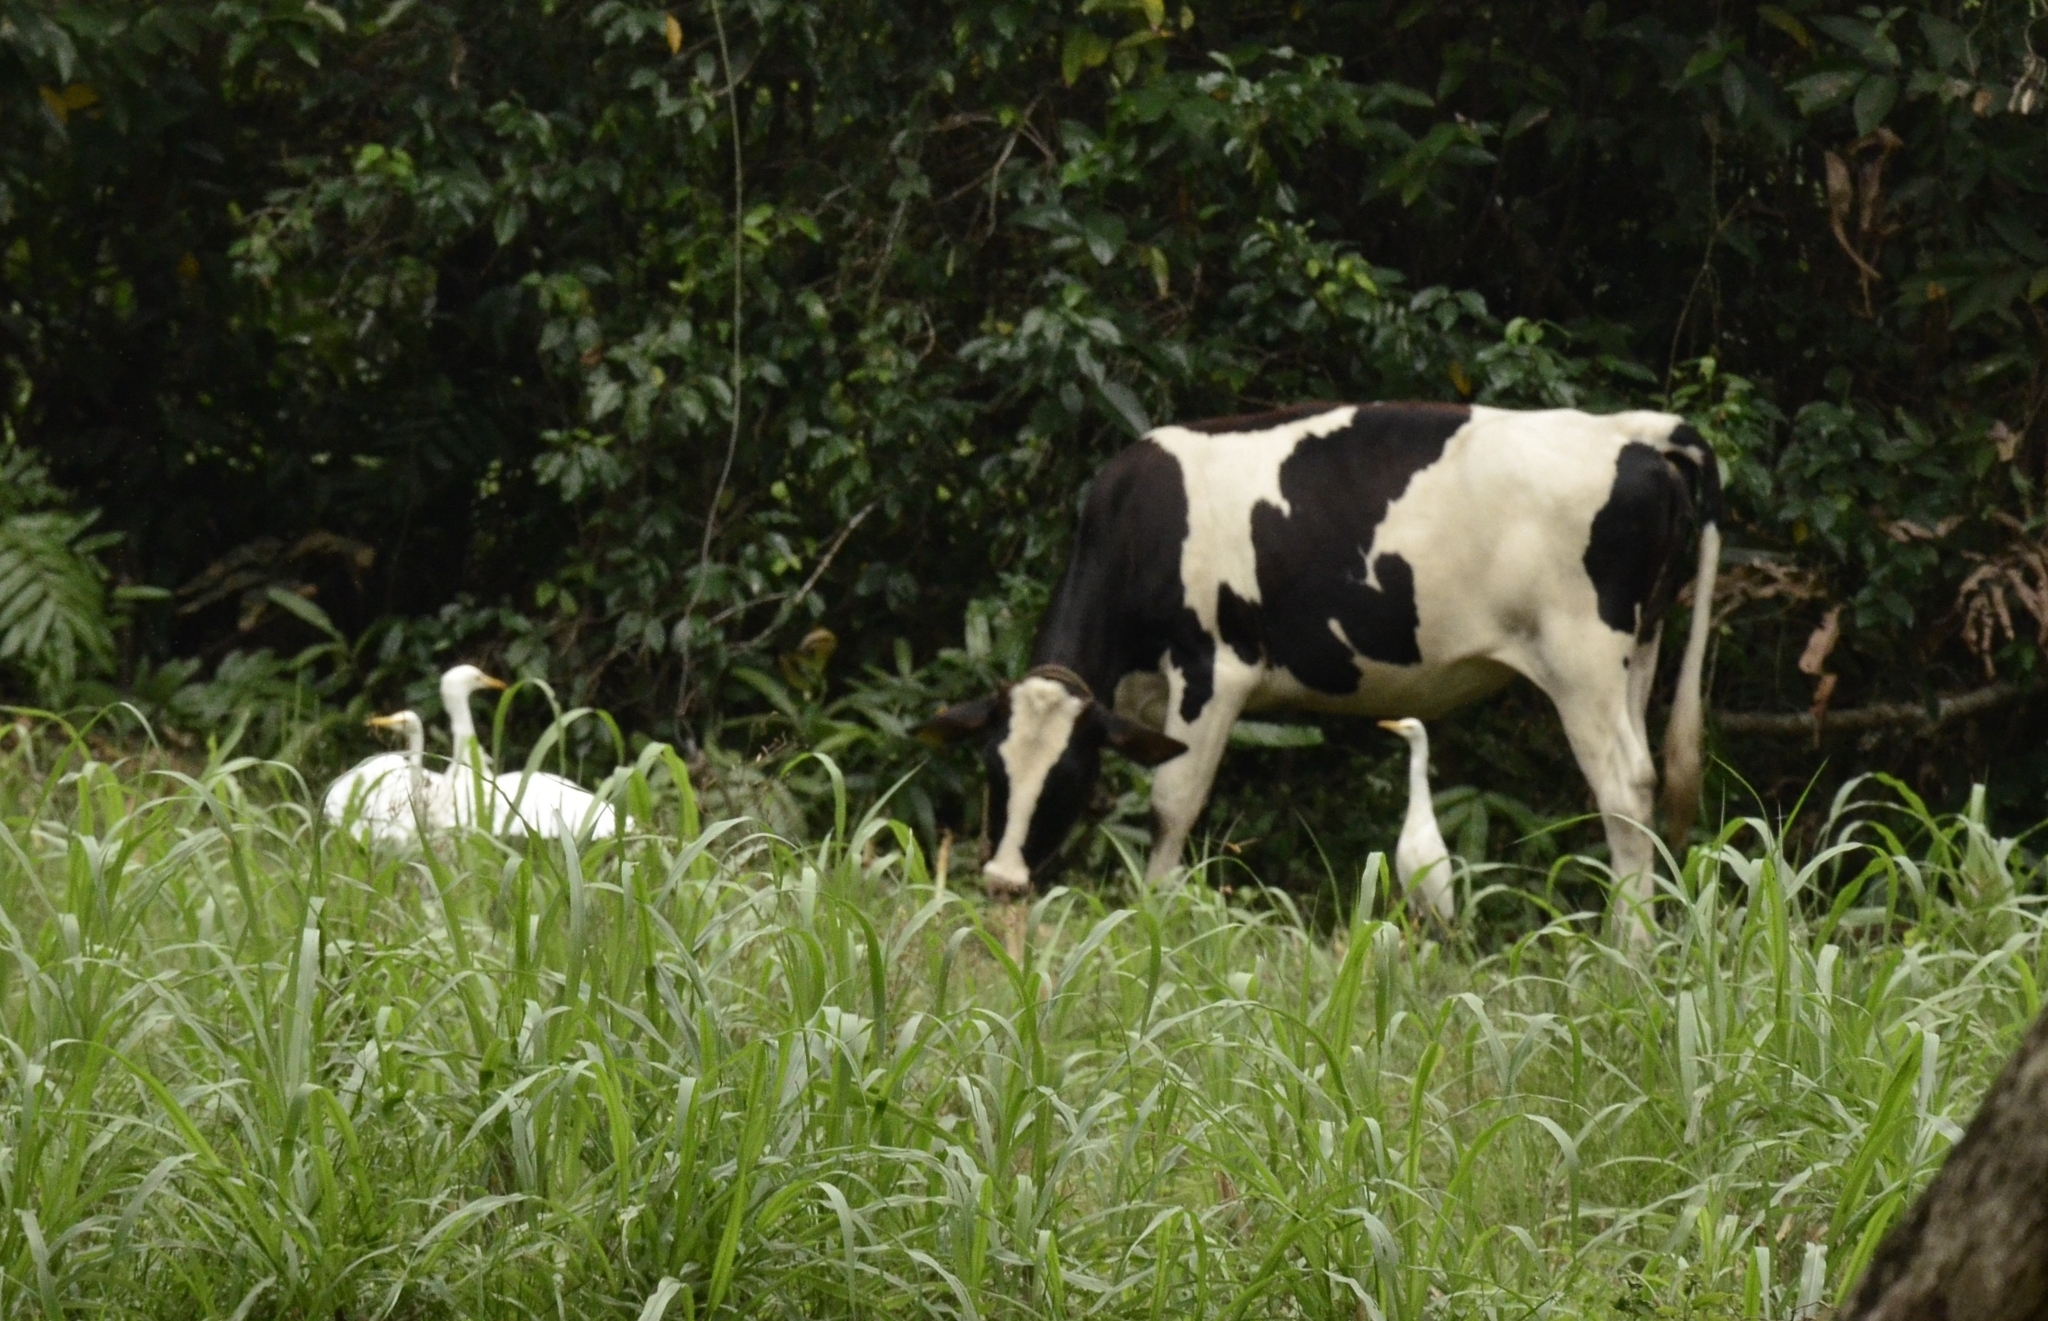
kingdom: Animalia
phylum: Chordata
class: Aves
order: Pelecaniformes
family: Ardeidae
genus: Bubulcus
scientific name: Bubulcus coromandus
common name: Eastern cattle egret
